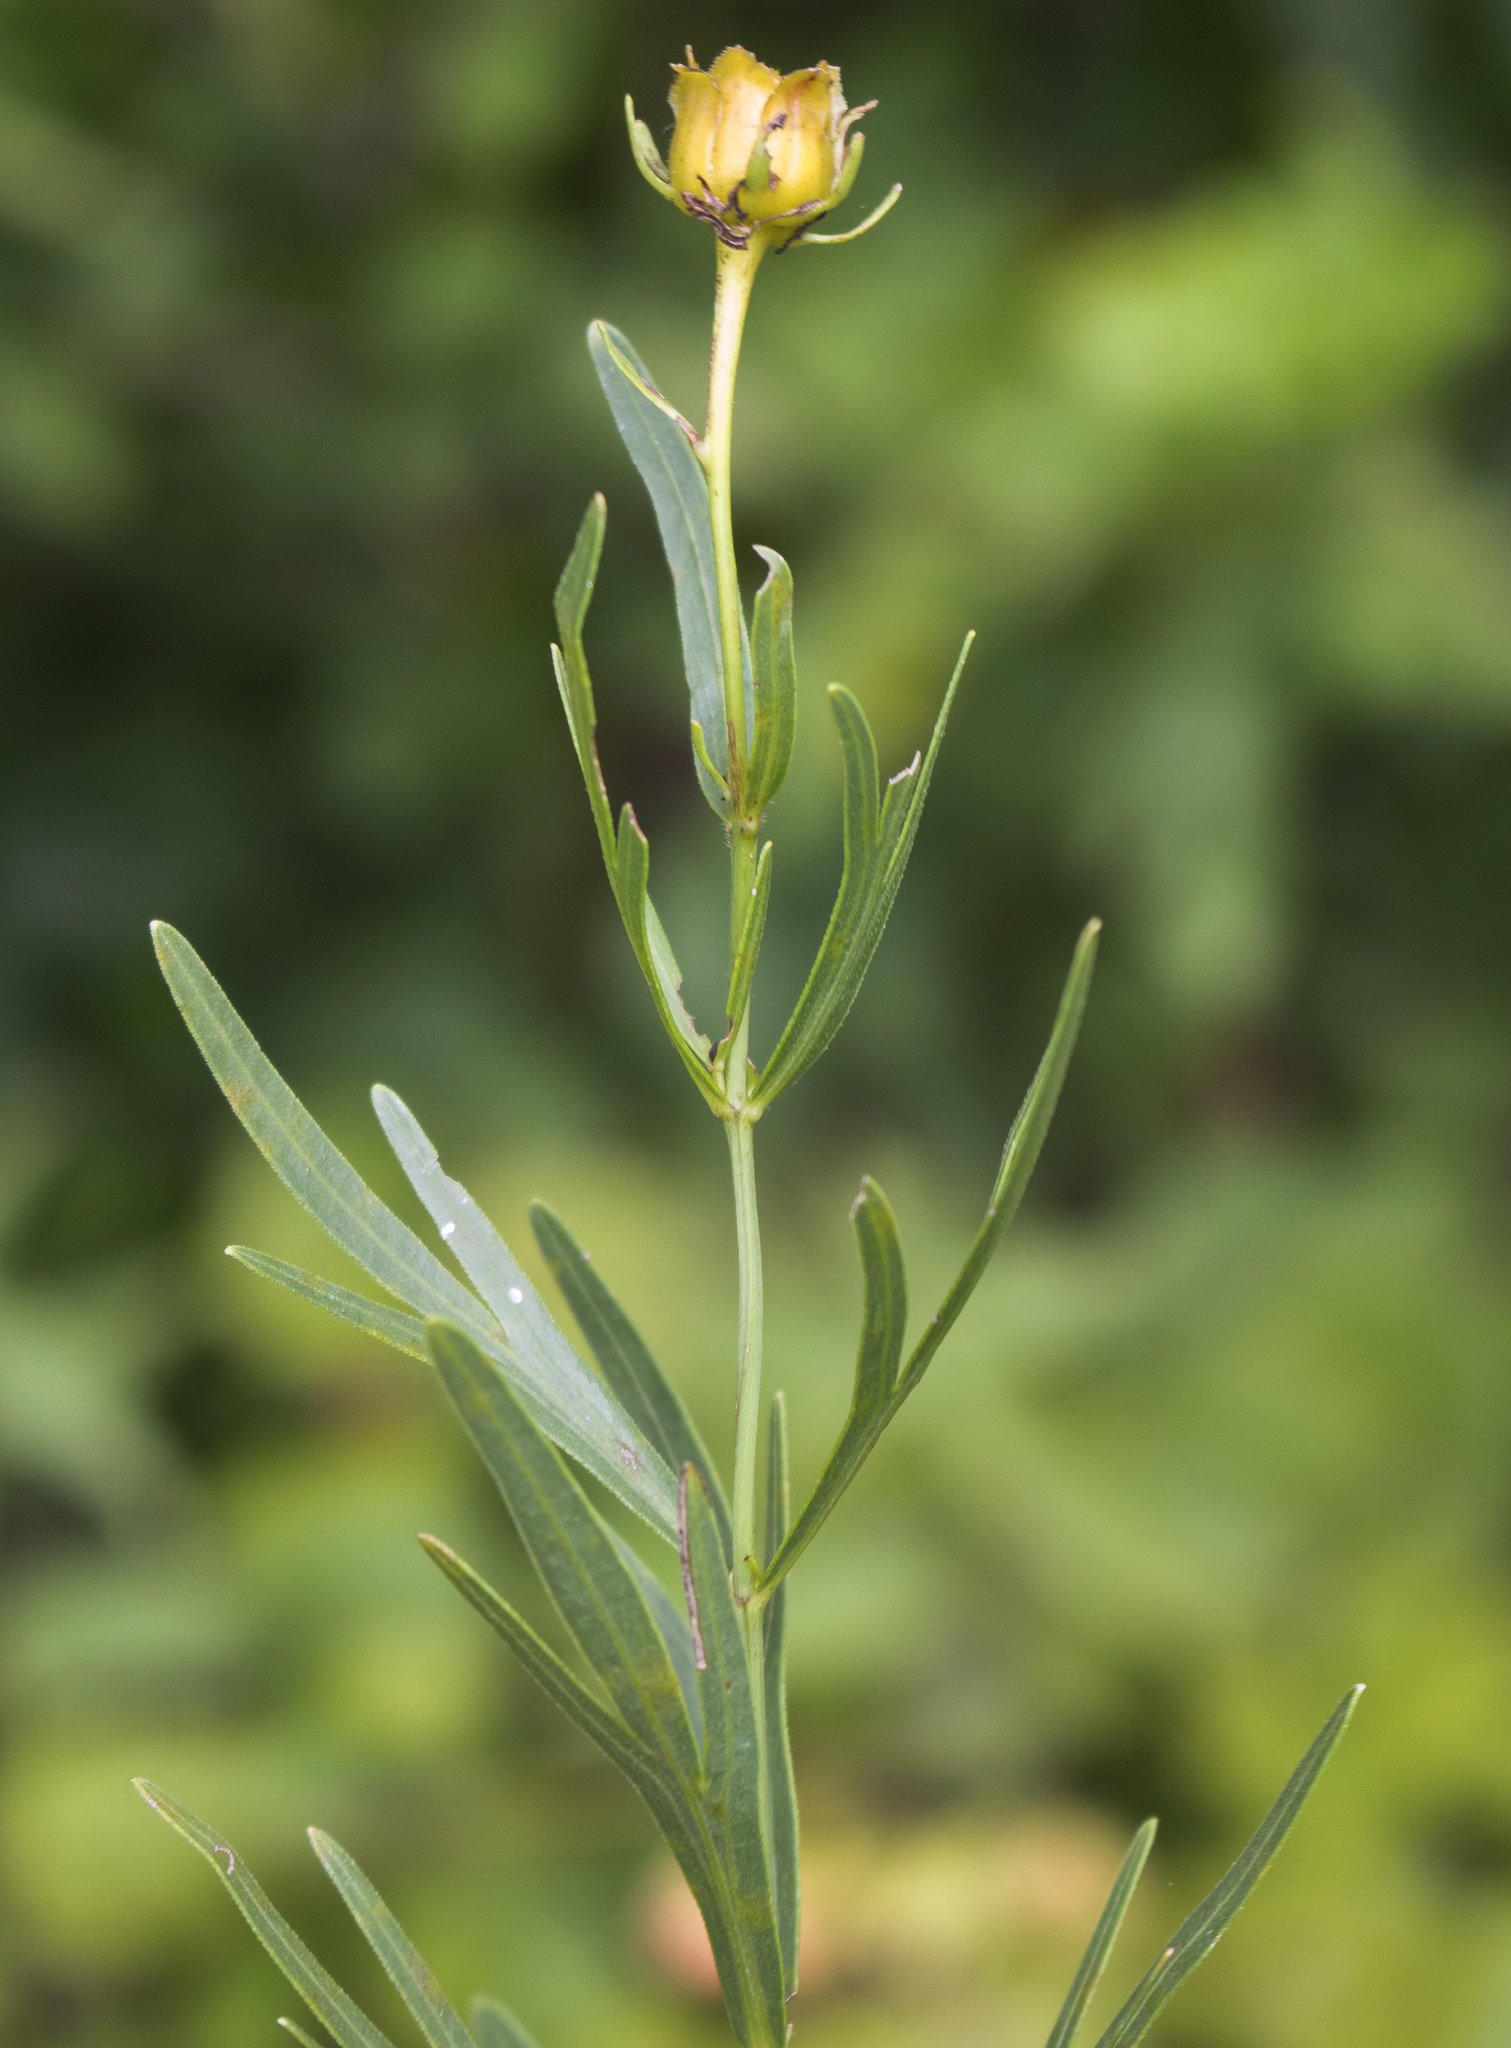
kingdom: Plantae
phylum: Tracheophyta
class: Magnoliopsida
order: Asterales
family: Asteraceae
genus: Coreopsis
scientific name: Coreopsis palmata
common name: Prairie coreopsis
